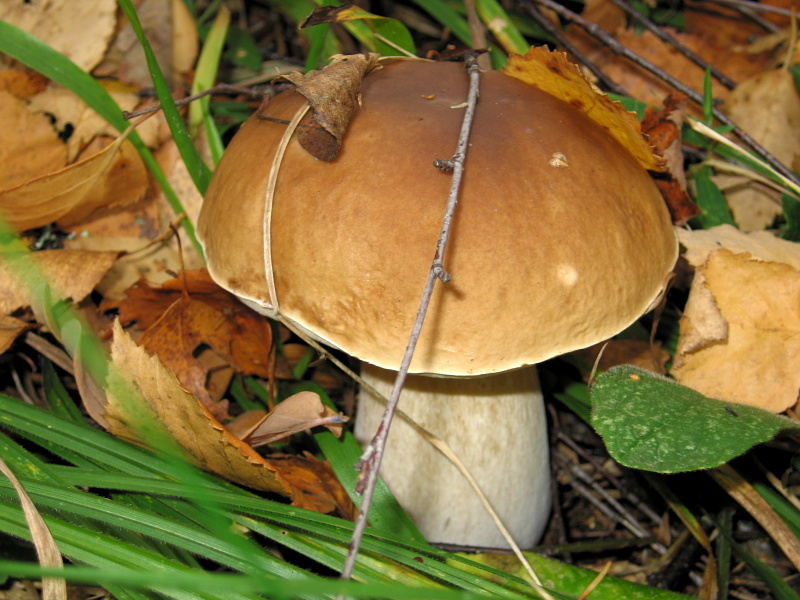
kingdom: Fungi
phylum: Basidiomycota
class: Agaricomycetes
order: Boletales
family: Boletaceae
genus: Boletus
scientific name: Boletus edulis
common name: Cep
